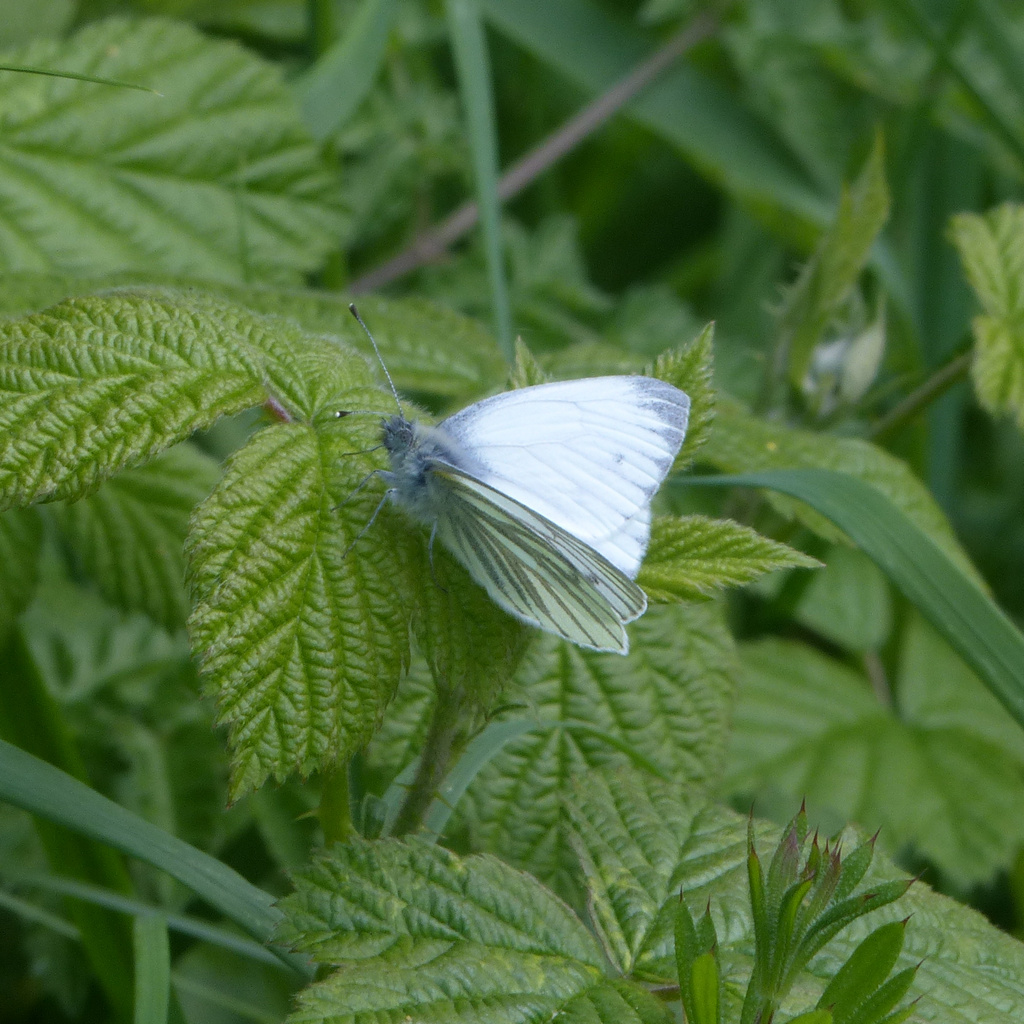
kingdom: Animalia
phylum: Arthropoda
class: Insecta
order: Lepidoptera
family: Pieridae
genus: Pieris
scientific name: Pieris napi
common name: Green-veined white
